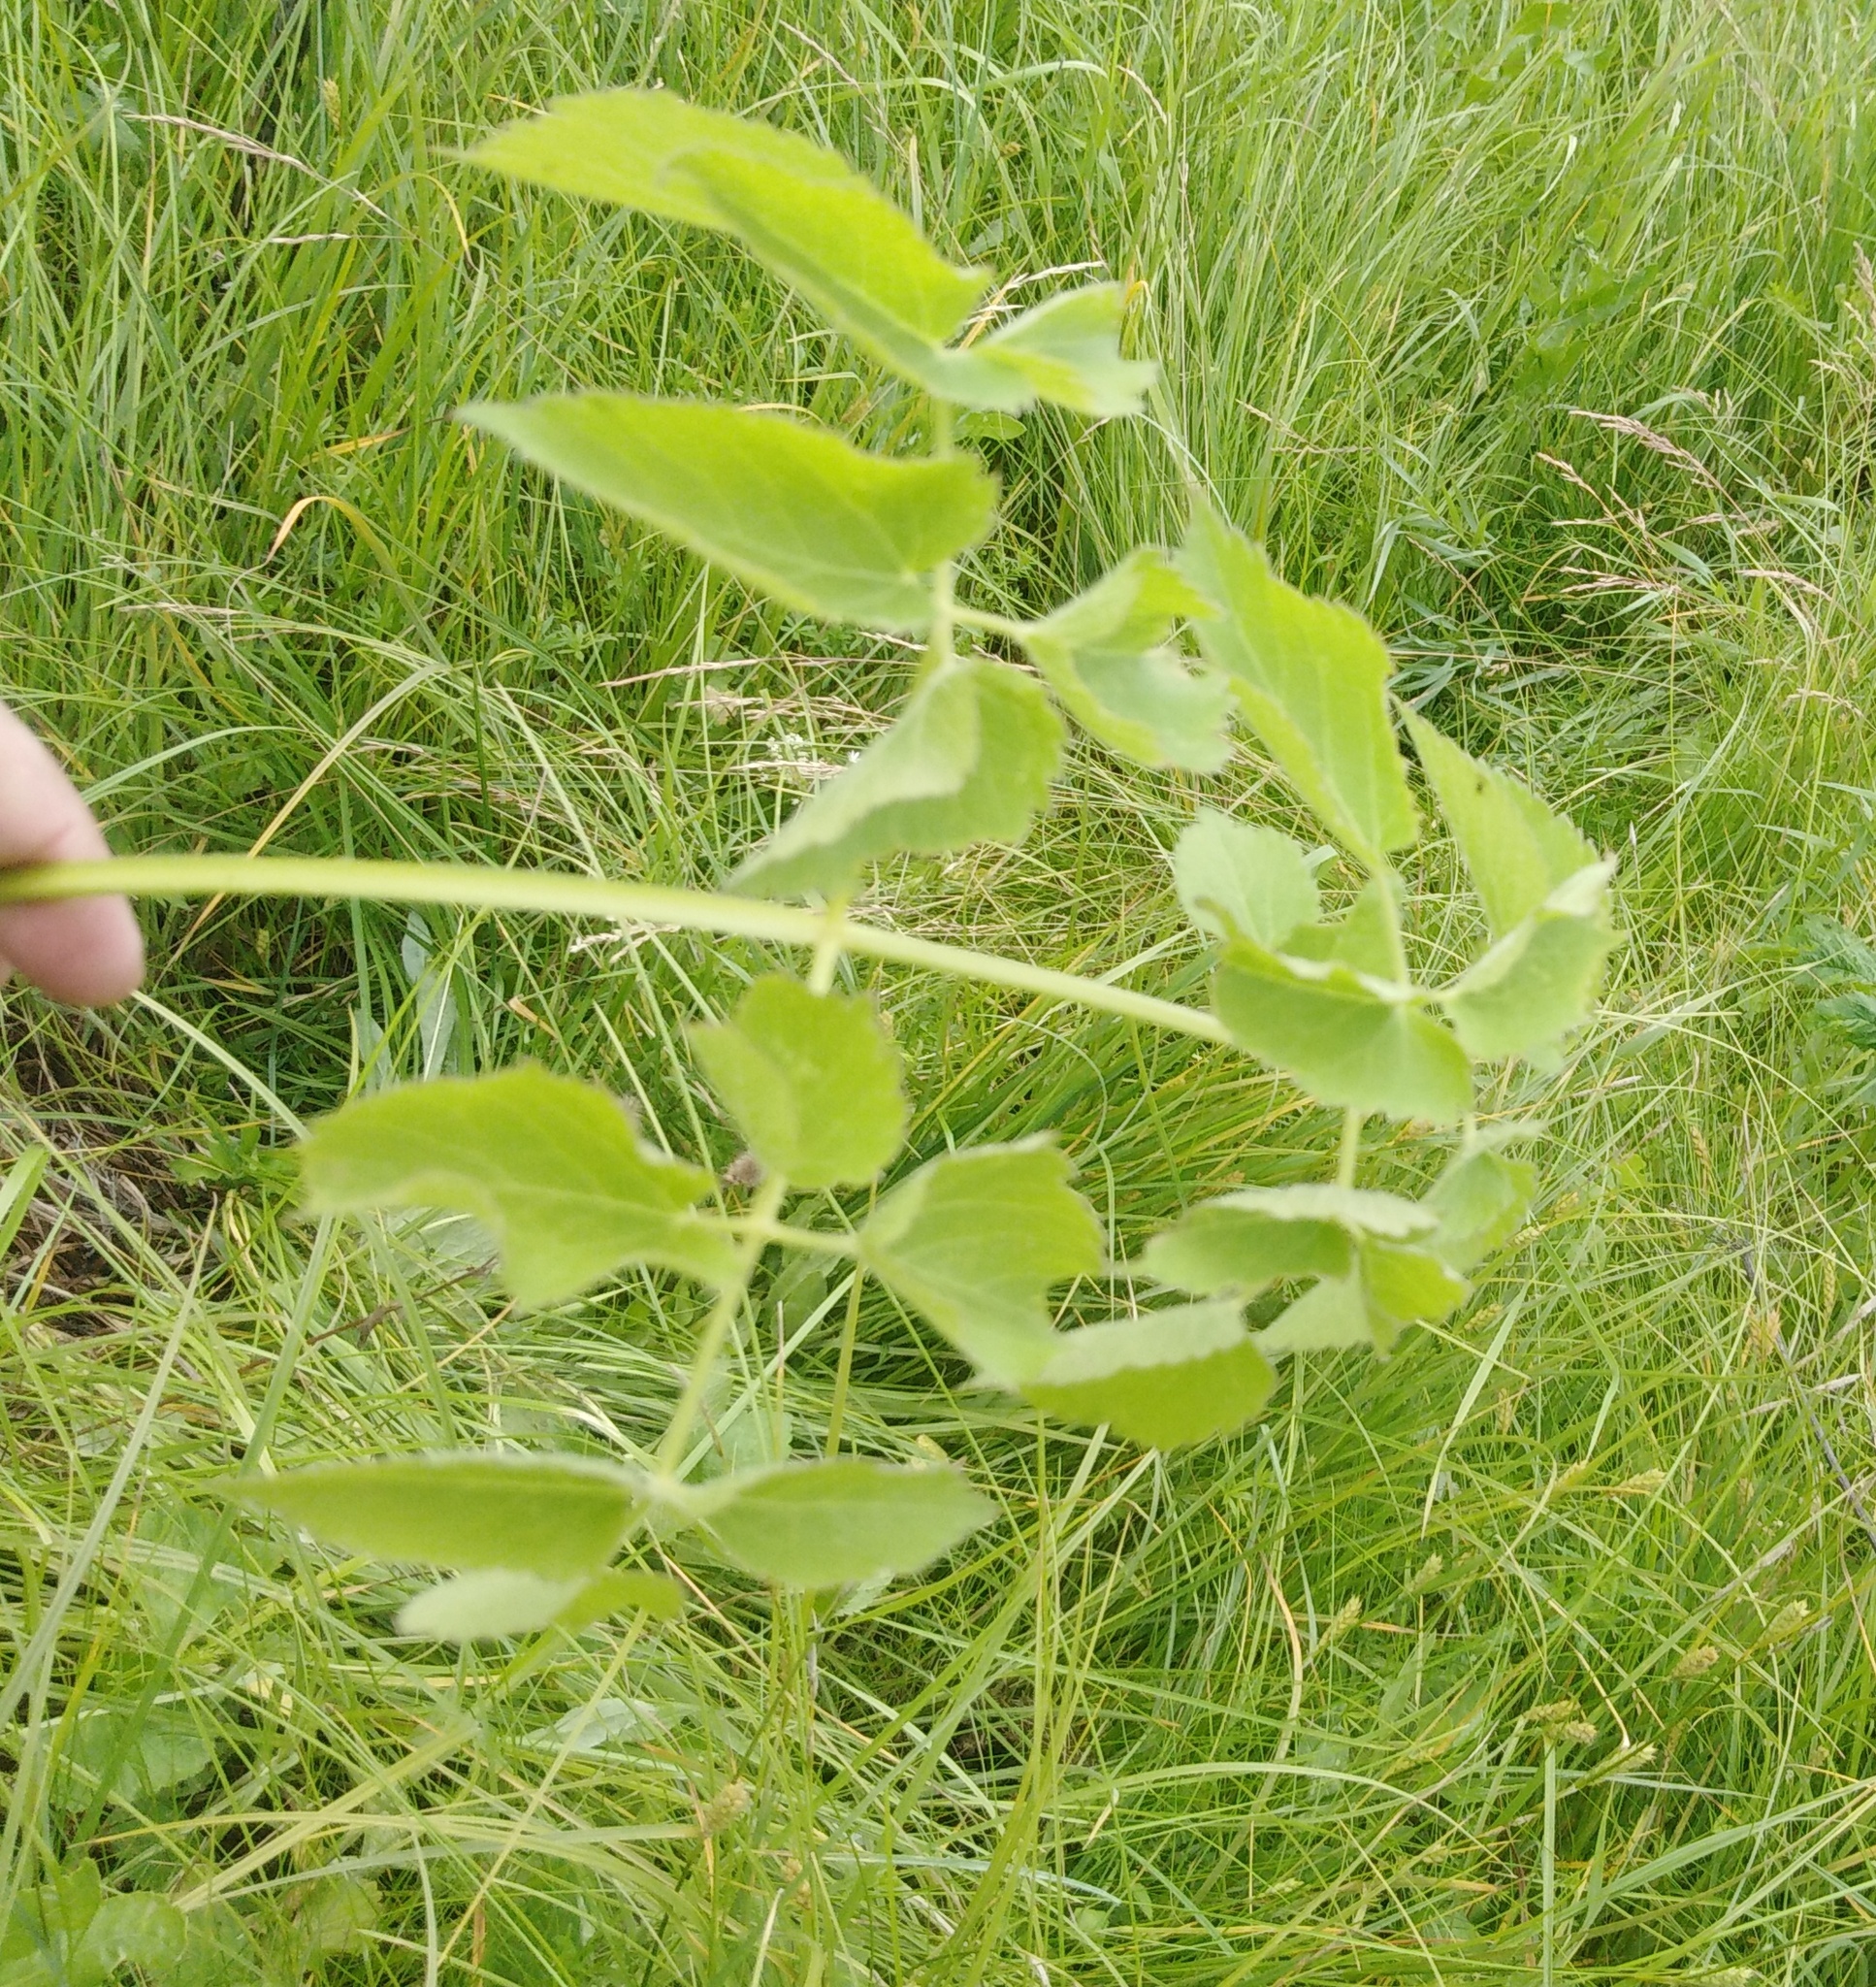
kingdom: Plantae
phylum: Tracheophyta
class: Magnoliopsida
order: Apiales
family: Apiaceae
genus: Ostericum
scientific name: Ostericum palustre
